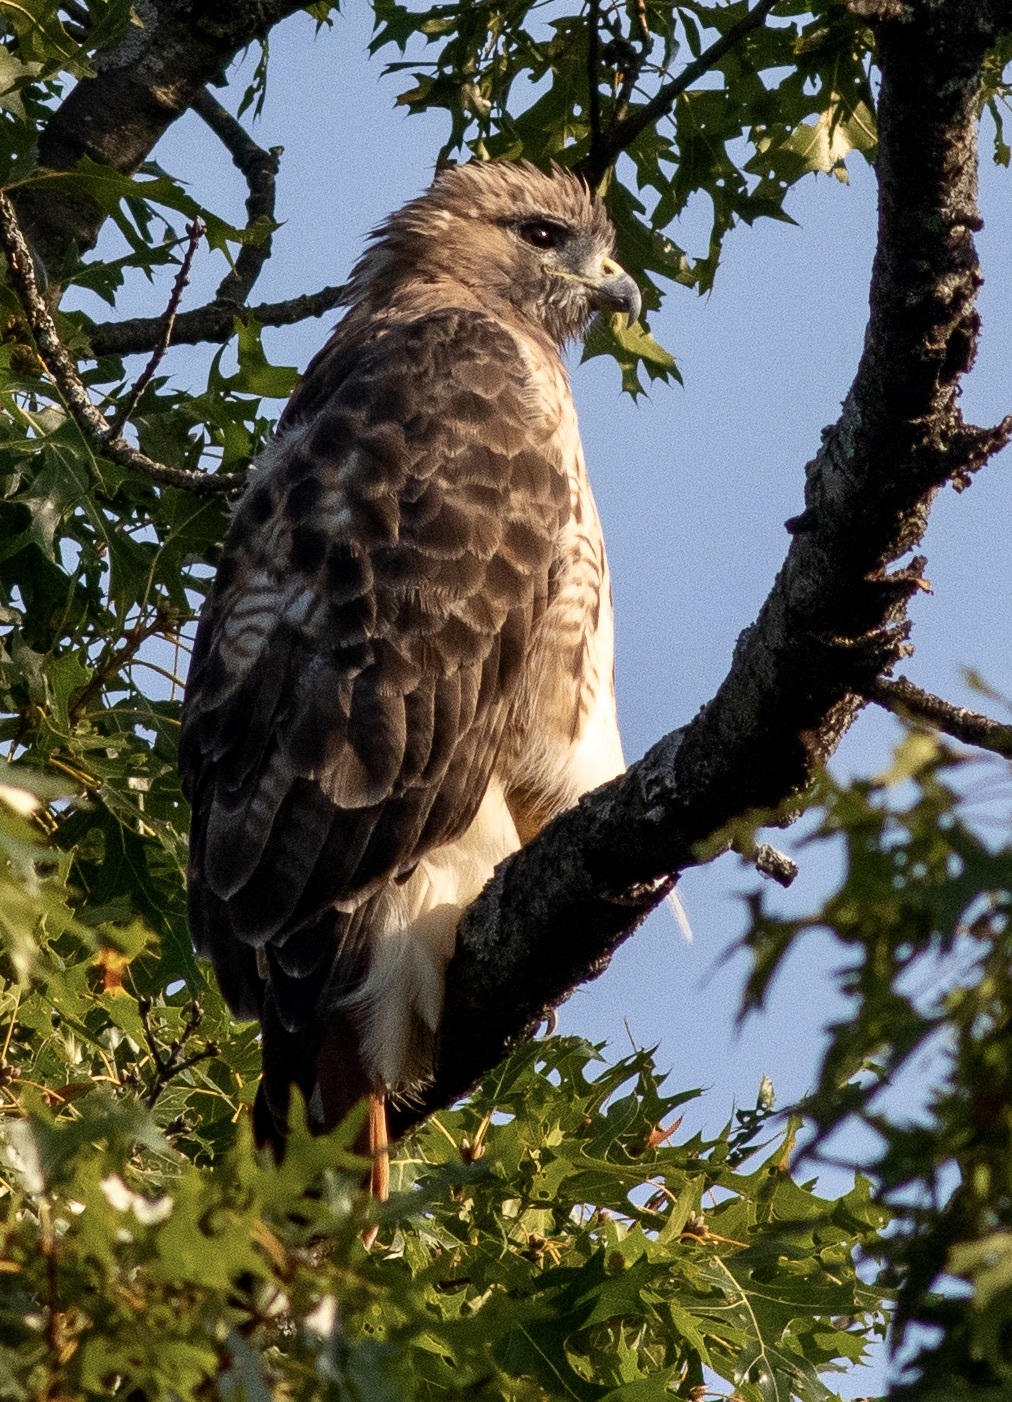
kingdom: Animalia
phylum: Chordata
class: Aves
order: Accipitriformes
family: Accipitridae
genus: Buteo
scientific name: Buteo jamaicensis
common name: Red-tailed hawk
